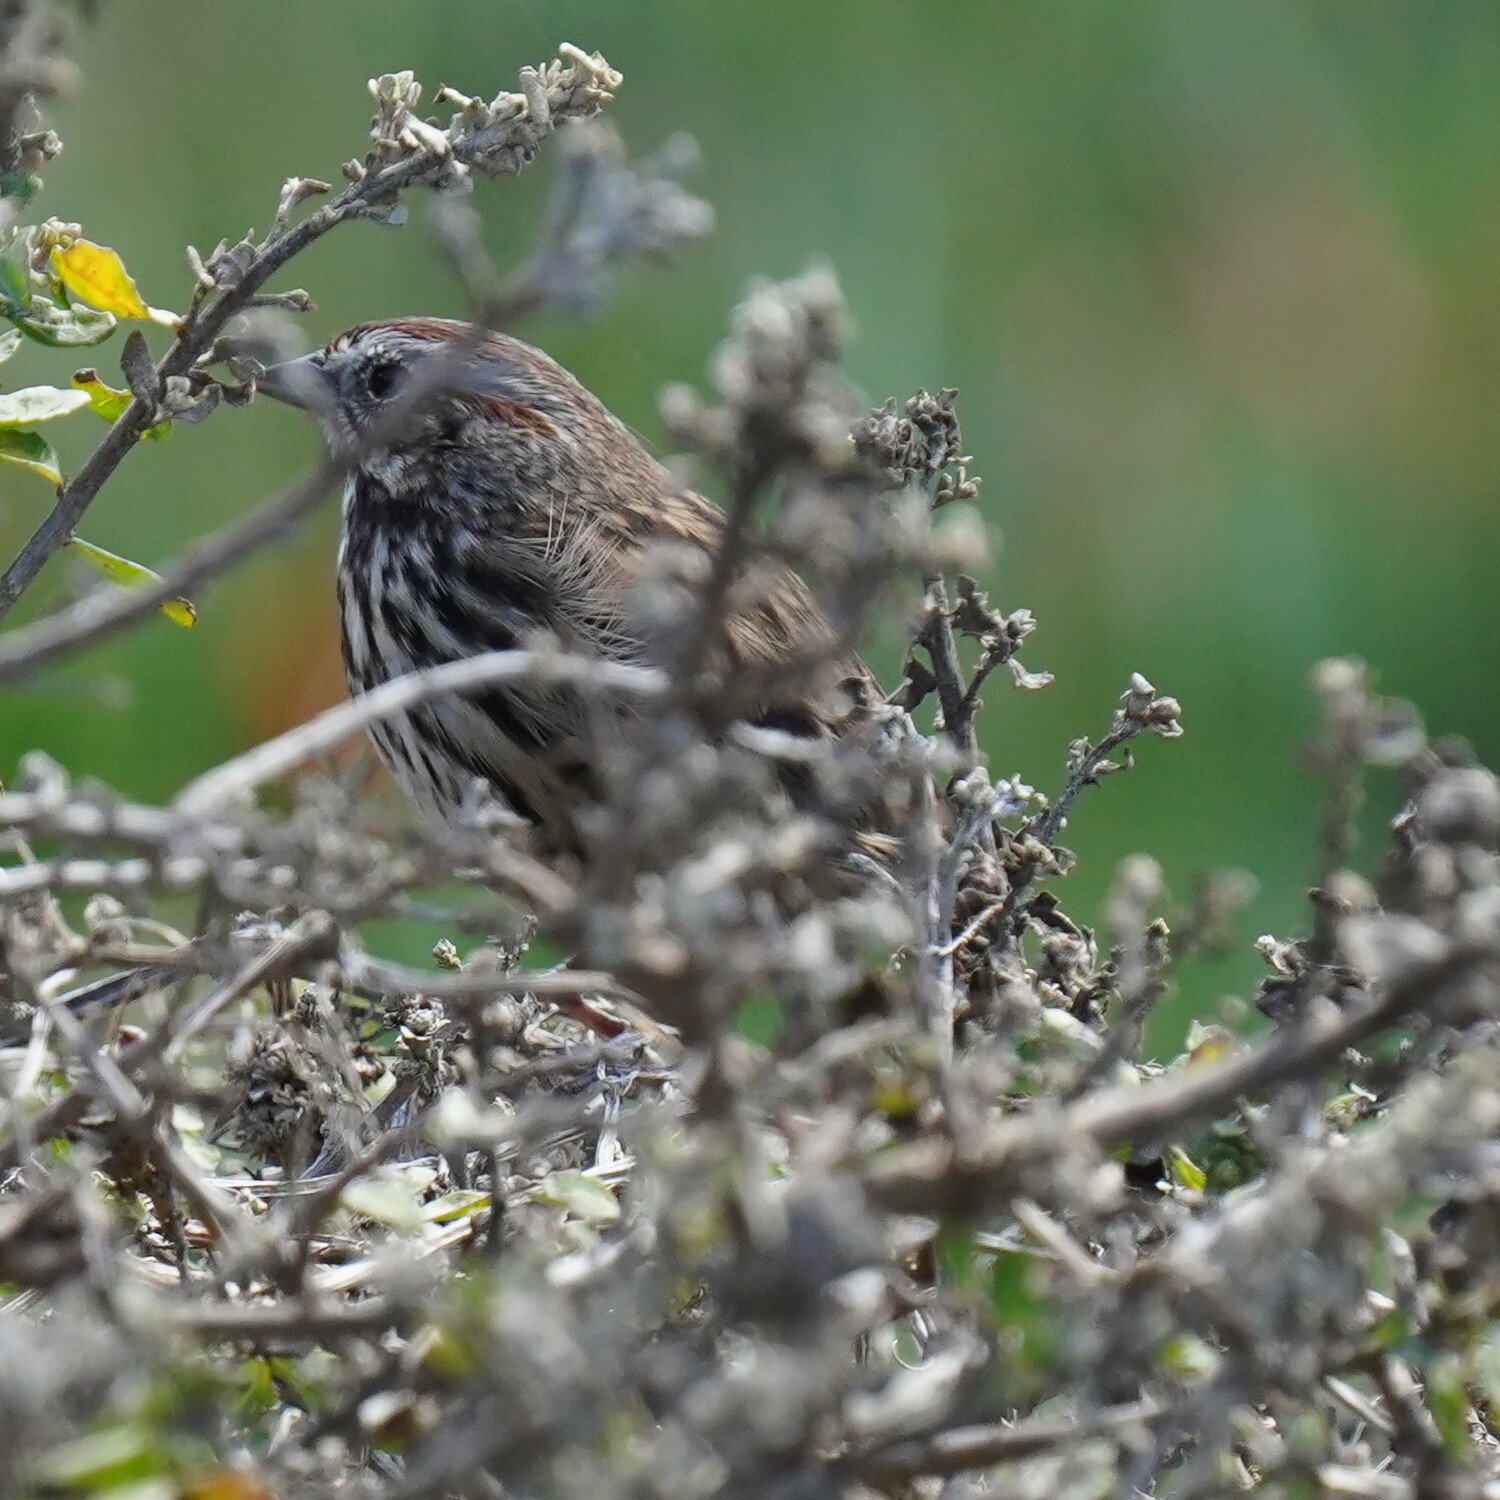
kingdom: Animalia
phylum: Chordata
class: Aves
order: Passeriformes
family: Passerellidae
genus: Melospiza
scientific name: Melospiza melodia
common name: Song sparrow
